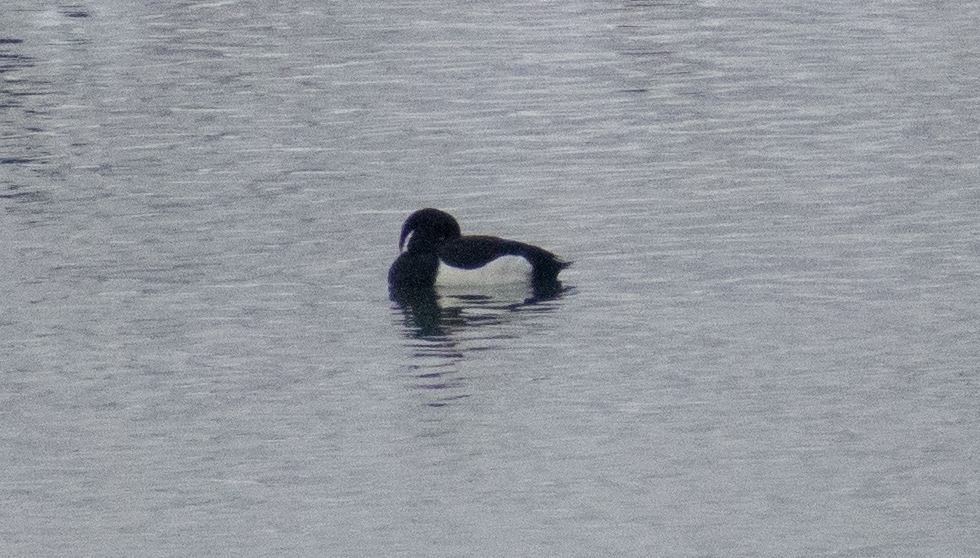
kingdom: Animalia
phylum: Chordata
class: Aves
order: Anseriformes
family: Anatidae
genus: Aythya
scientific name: Aythya fuligula
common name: Tufted duck
